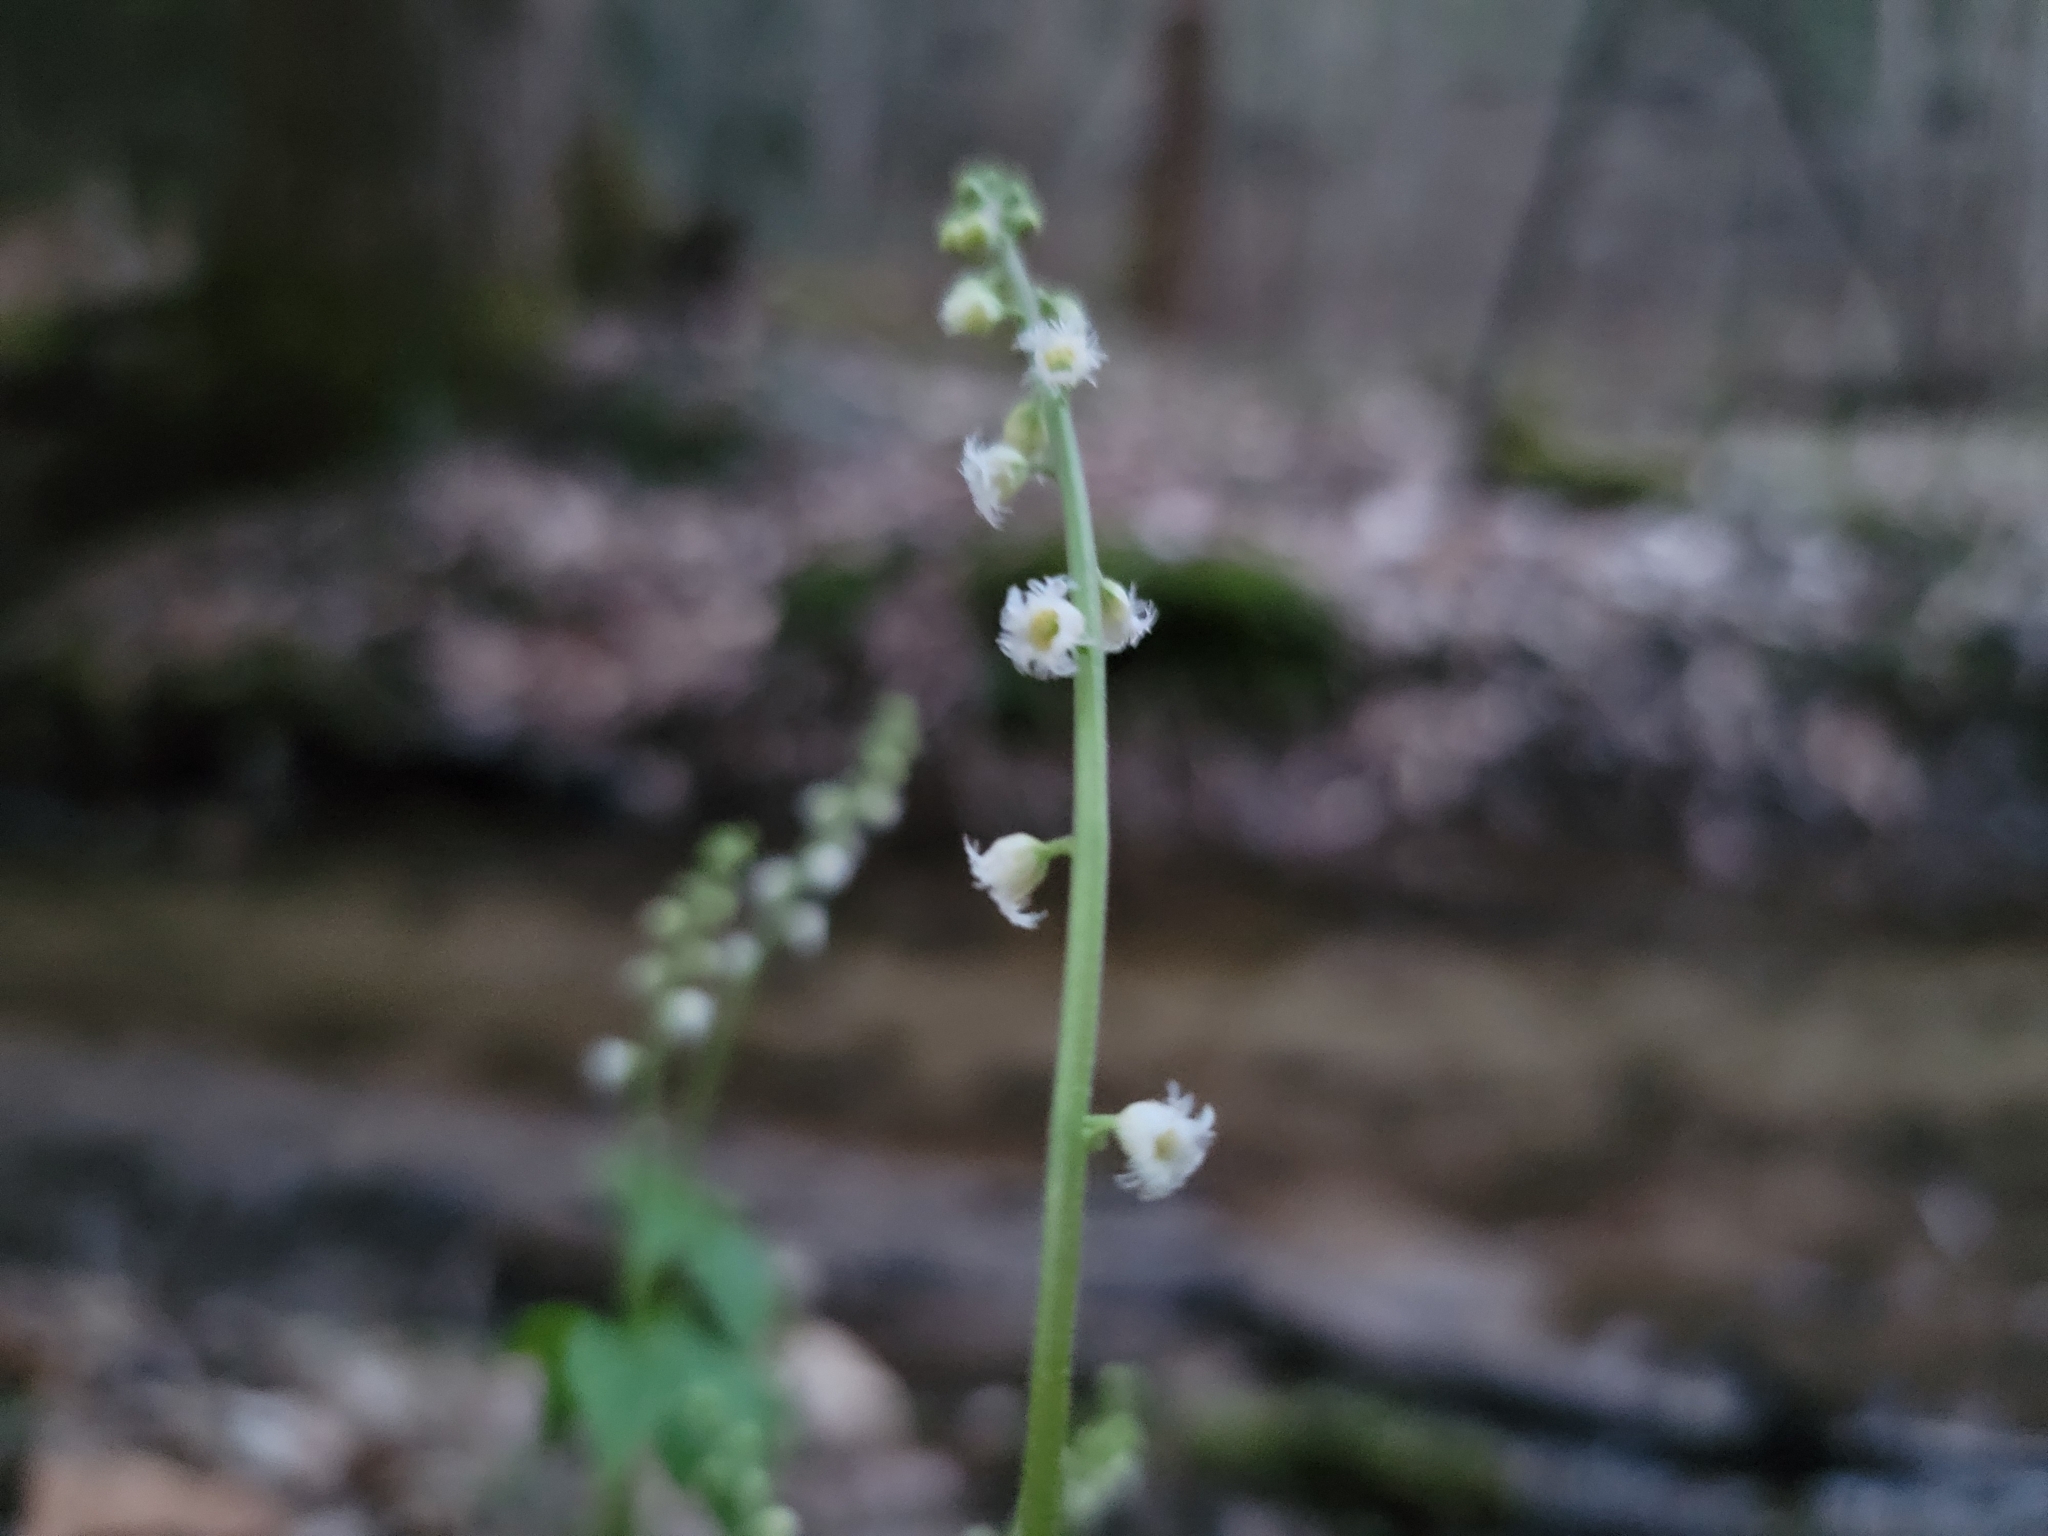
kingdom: Plantae
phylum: Tracheophyta
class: Magnoliopsida
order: Saxifragales
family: Saxifragaceae
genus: Mitella
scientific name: Mitella diphylla
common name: Coolwort
